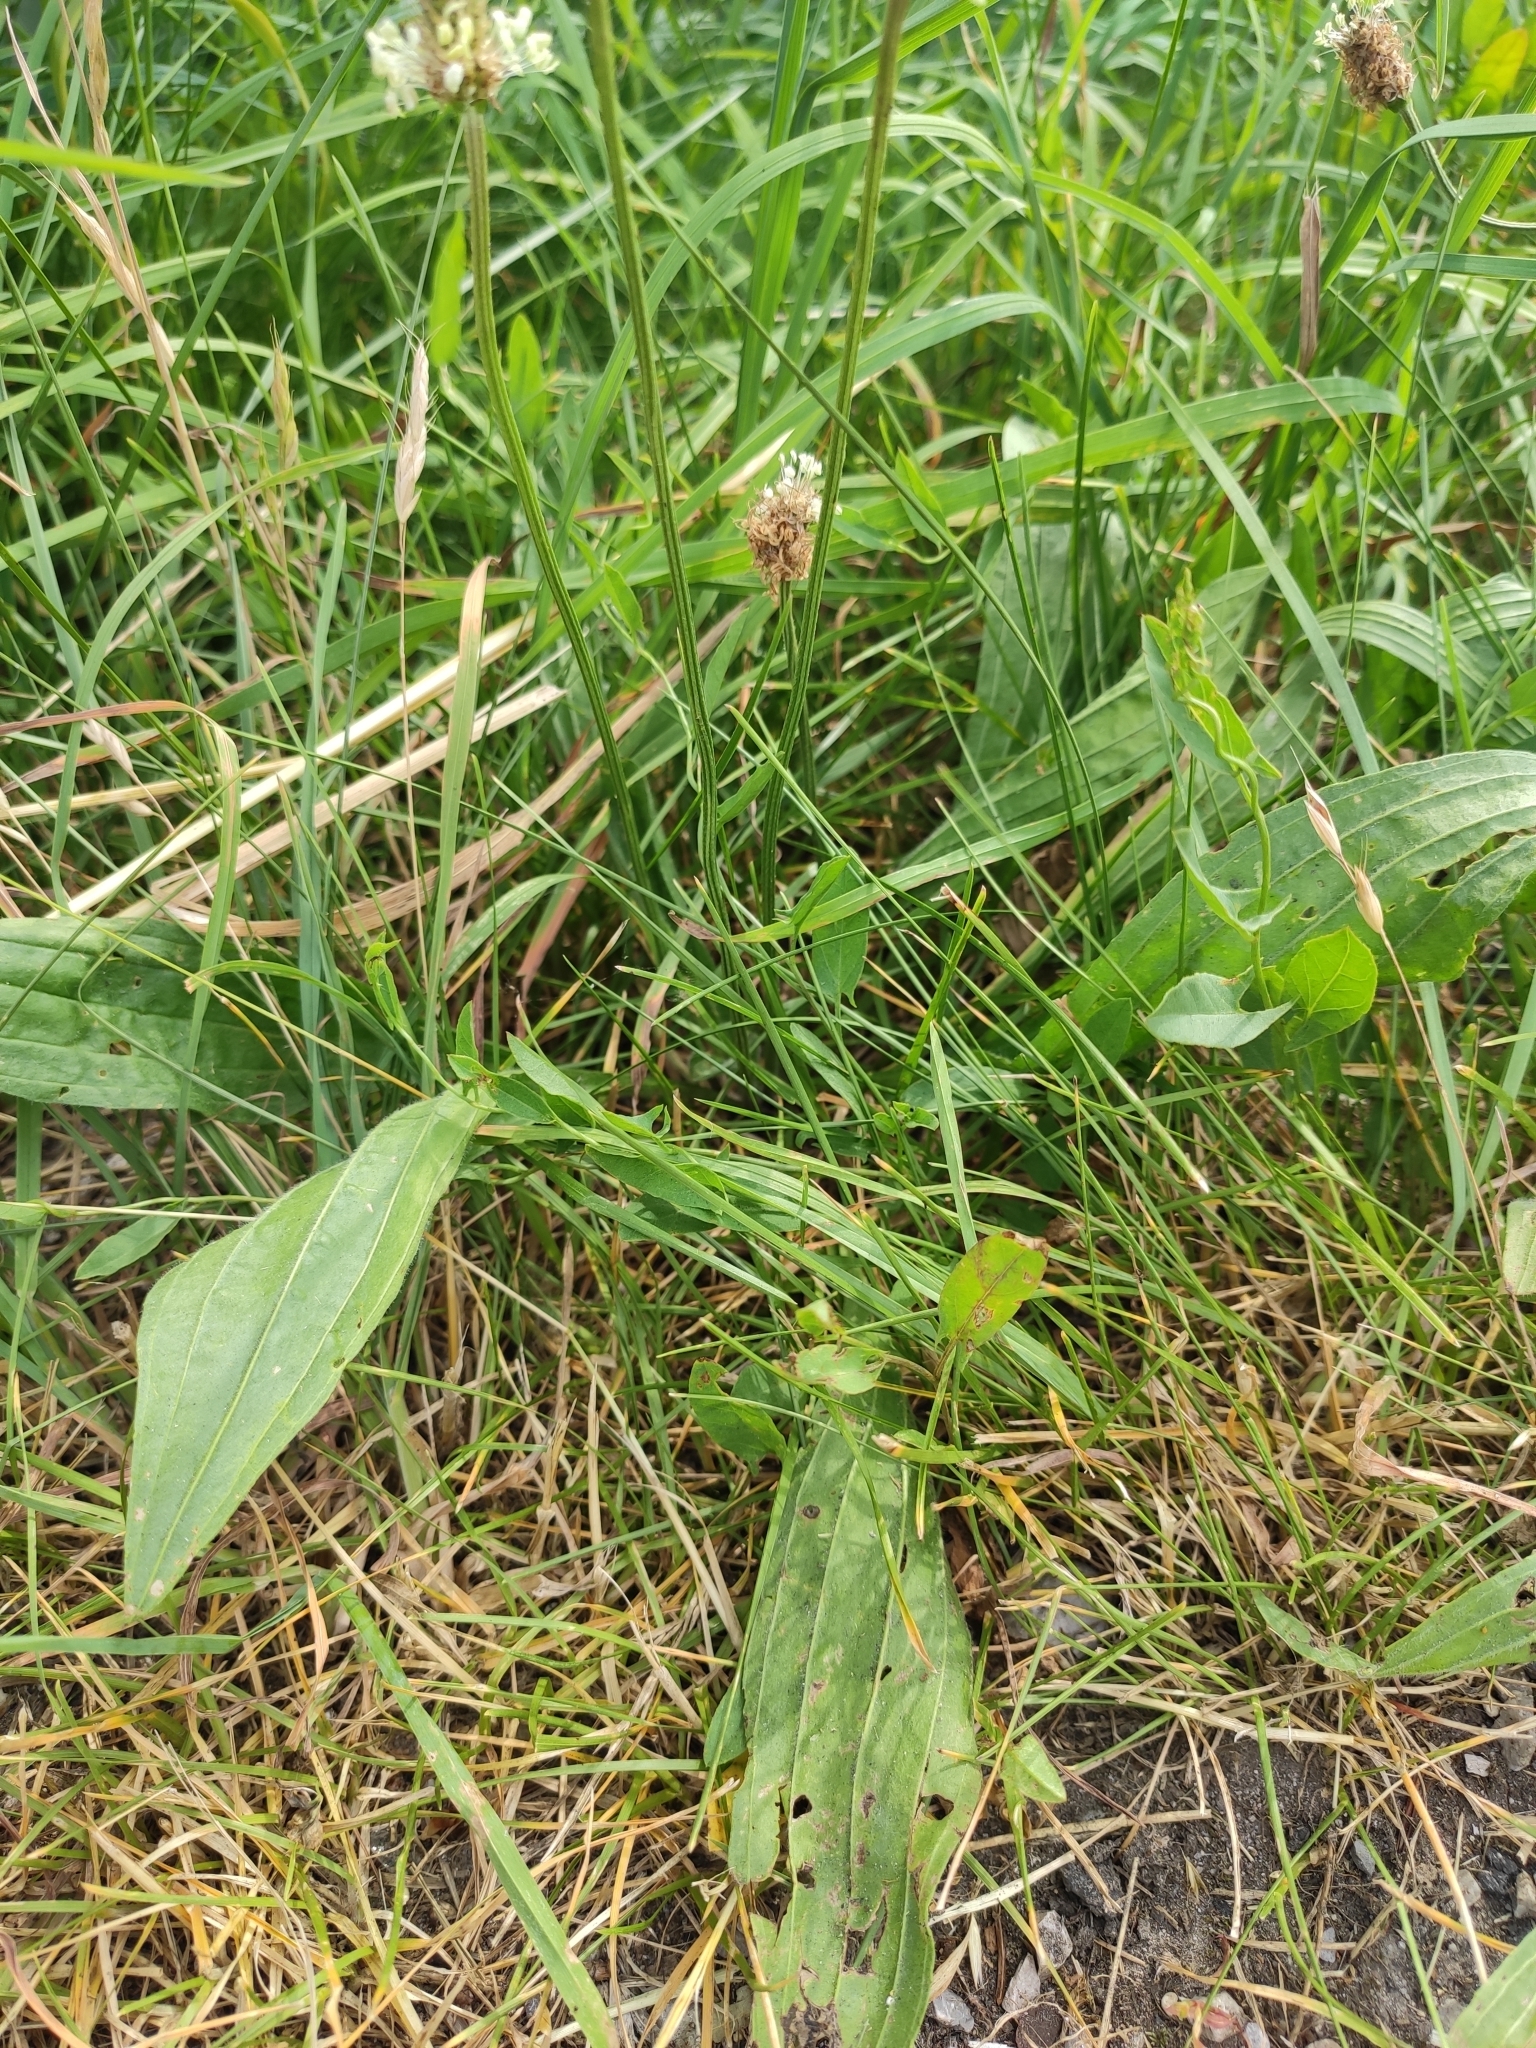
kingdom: Plantae
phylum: Tracheophyta
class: Magnoliopsida
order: Lamiales
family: Plantaginaceae
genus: Plantago
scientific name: Plantago lanceolata
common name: Ribwort plantain
